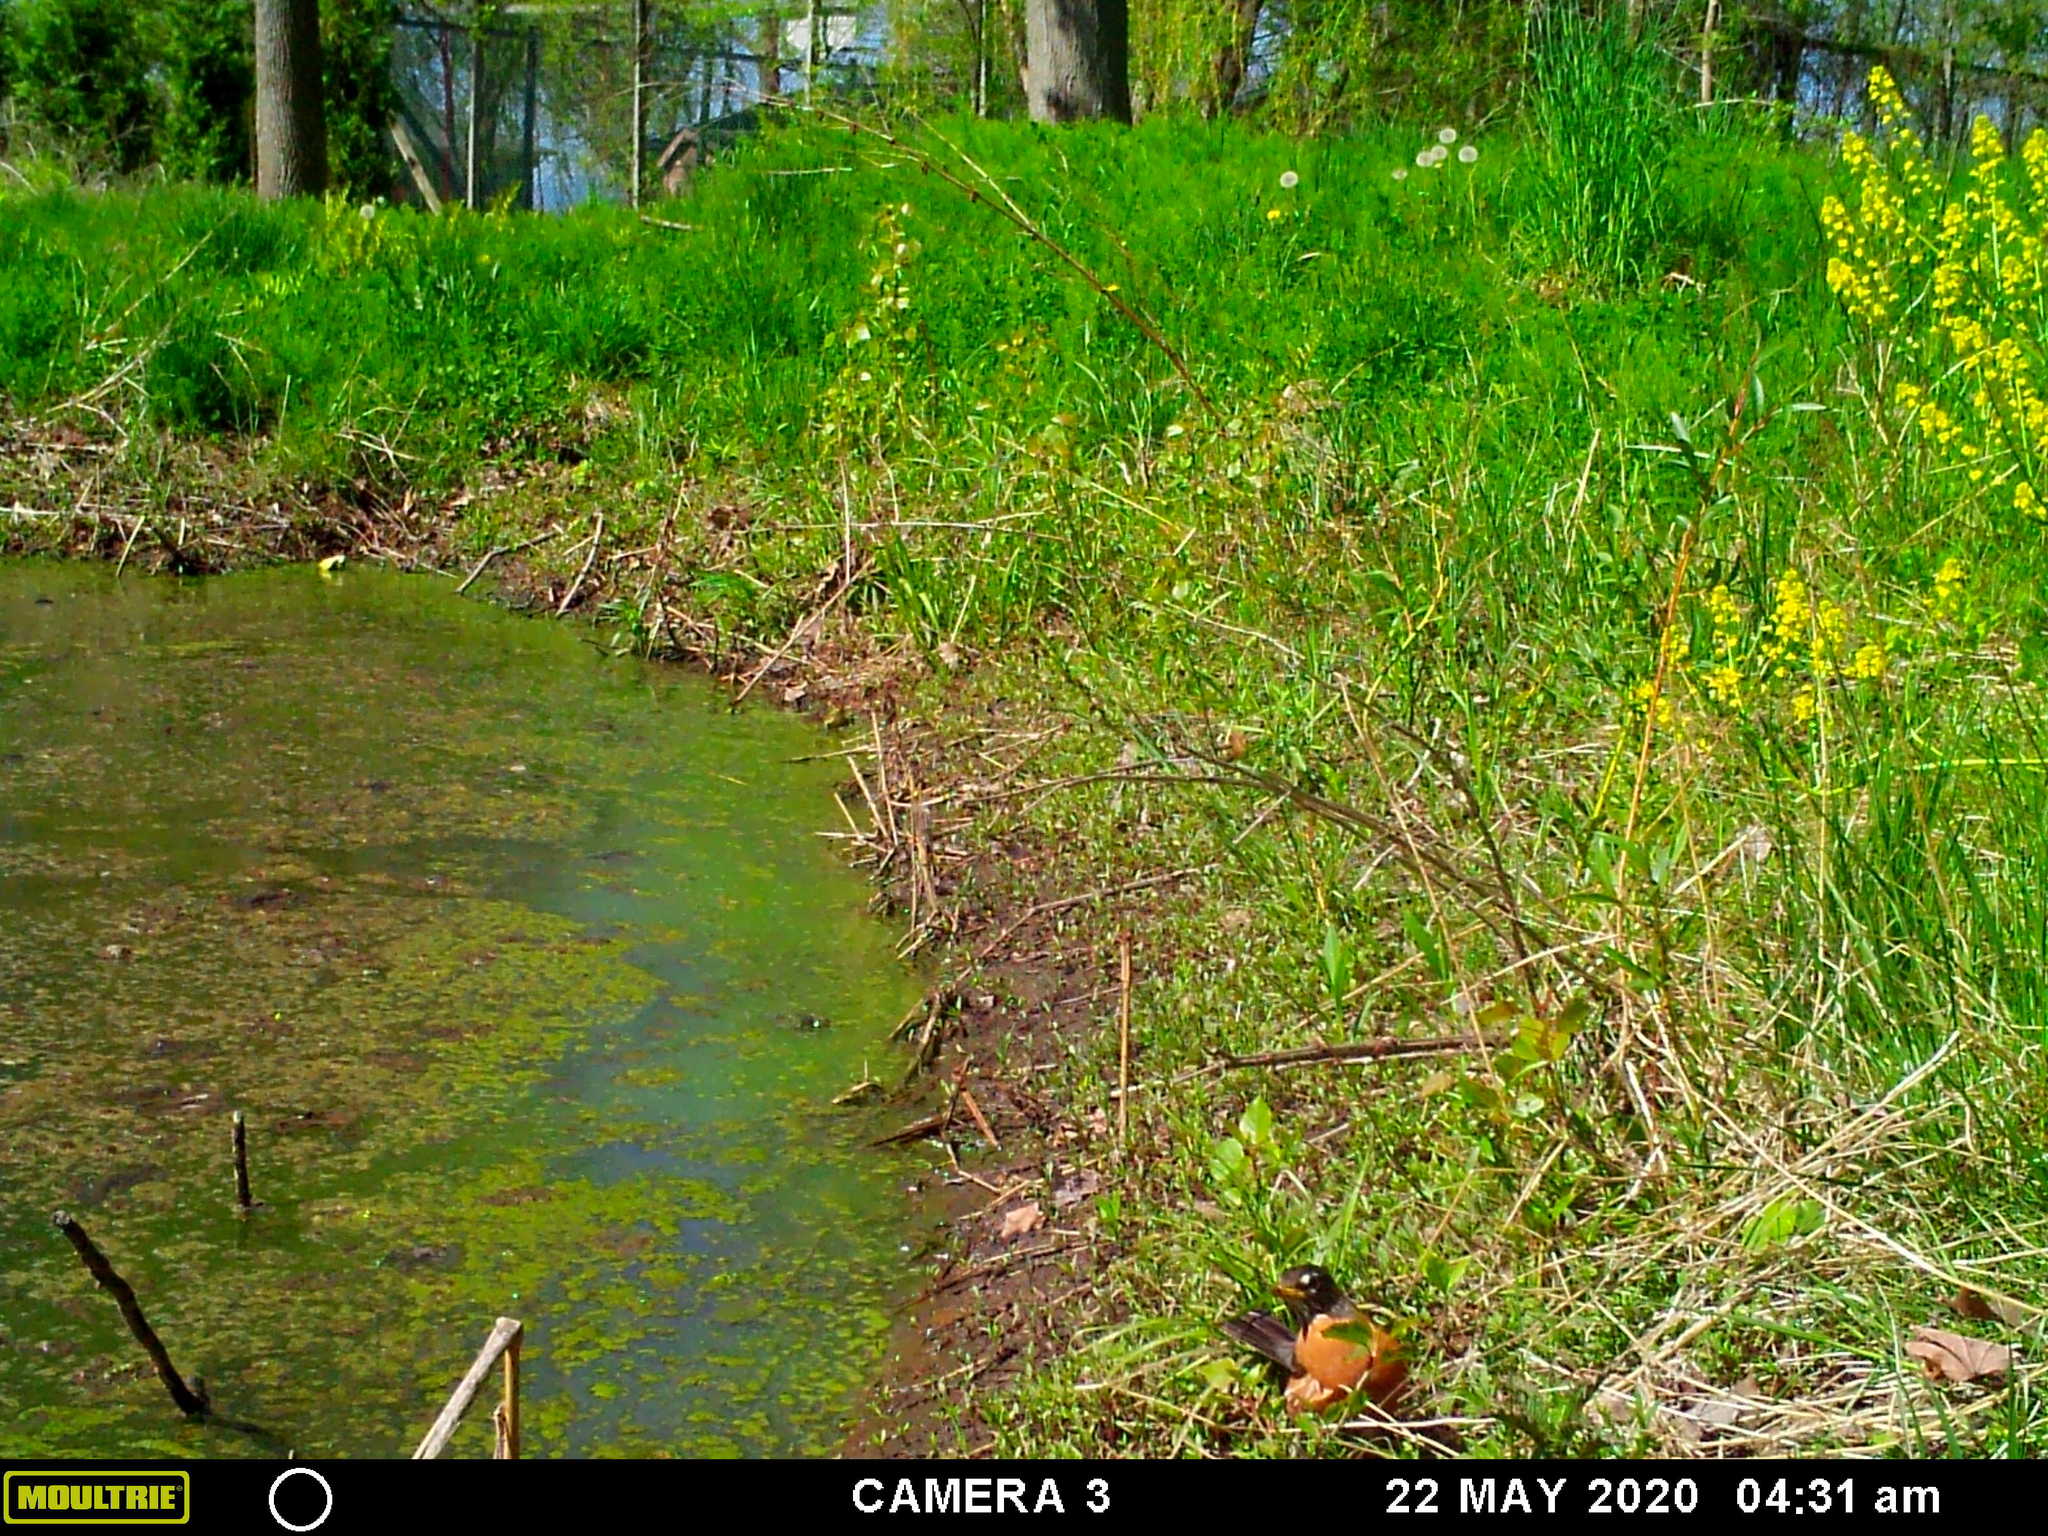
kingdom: Animalia
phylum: Chordata
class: Aves
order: Passeriformes
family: Turdidae
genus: Turdus
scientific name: Turdus migratorius
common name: American robin
